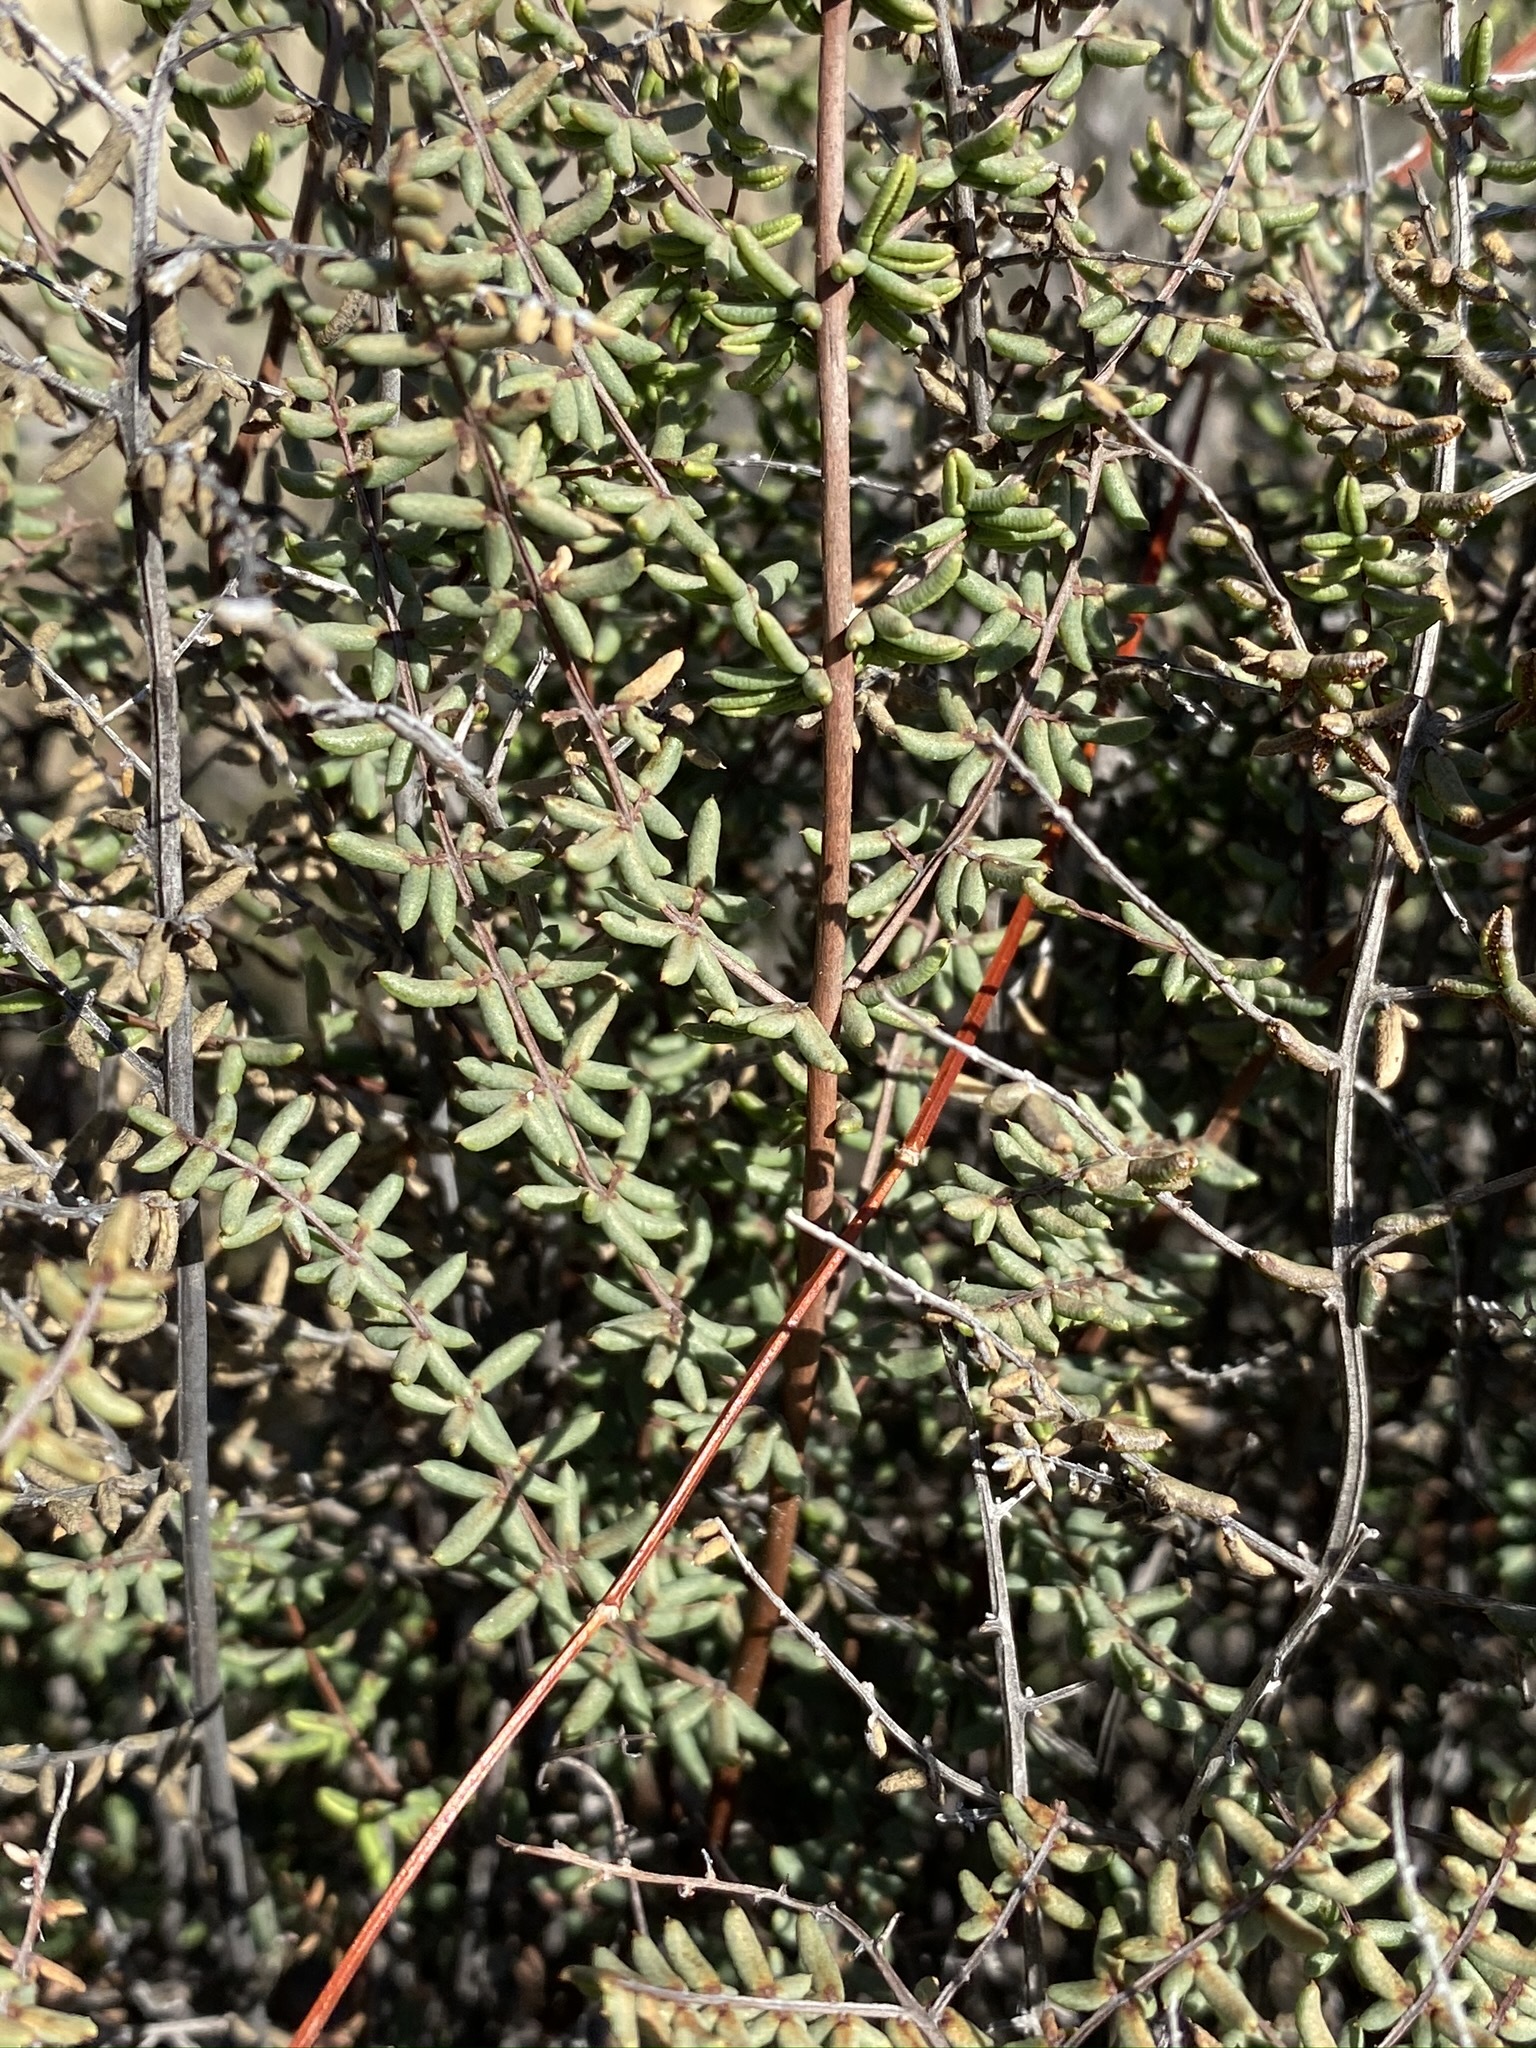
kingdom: Plantae
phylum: Tracheophyta
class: Polypodiopsida
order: Polypodiales
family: Pteridaceae
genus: Pellaea
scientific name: Pellaea mucronata
